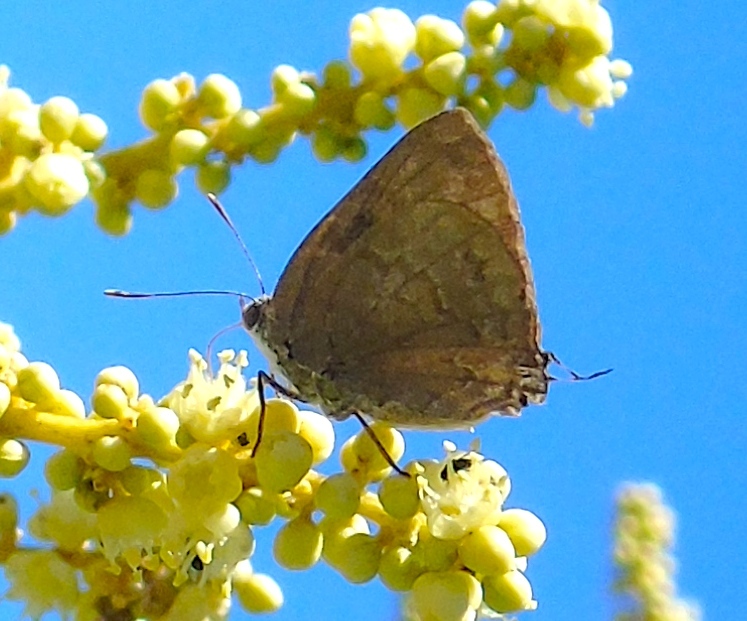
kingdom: Animalia
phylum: Arthropoda
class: Insecta
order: Lepidoptera
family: Lycaenidae
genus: Rekoa
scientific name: Rekoa palegon
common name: Gold-bordered hairstreak
